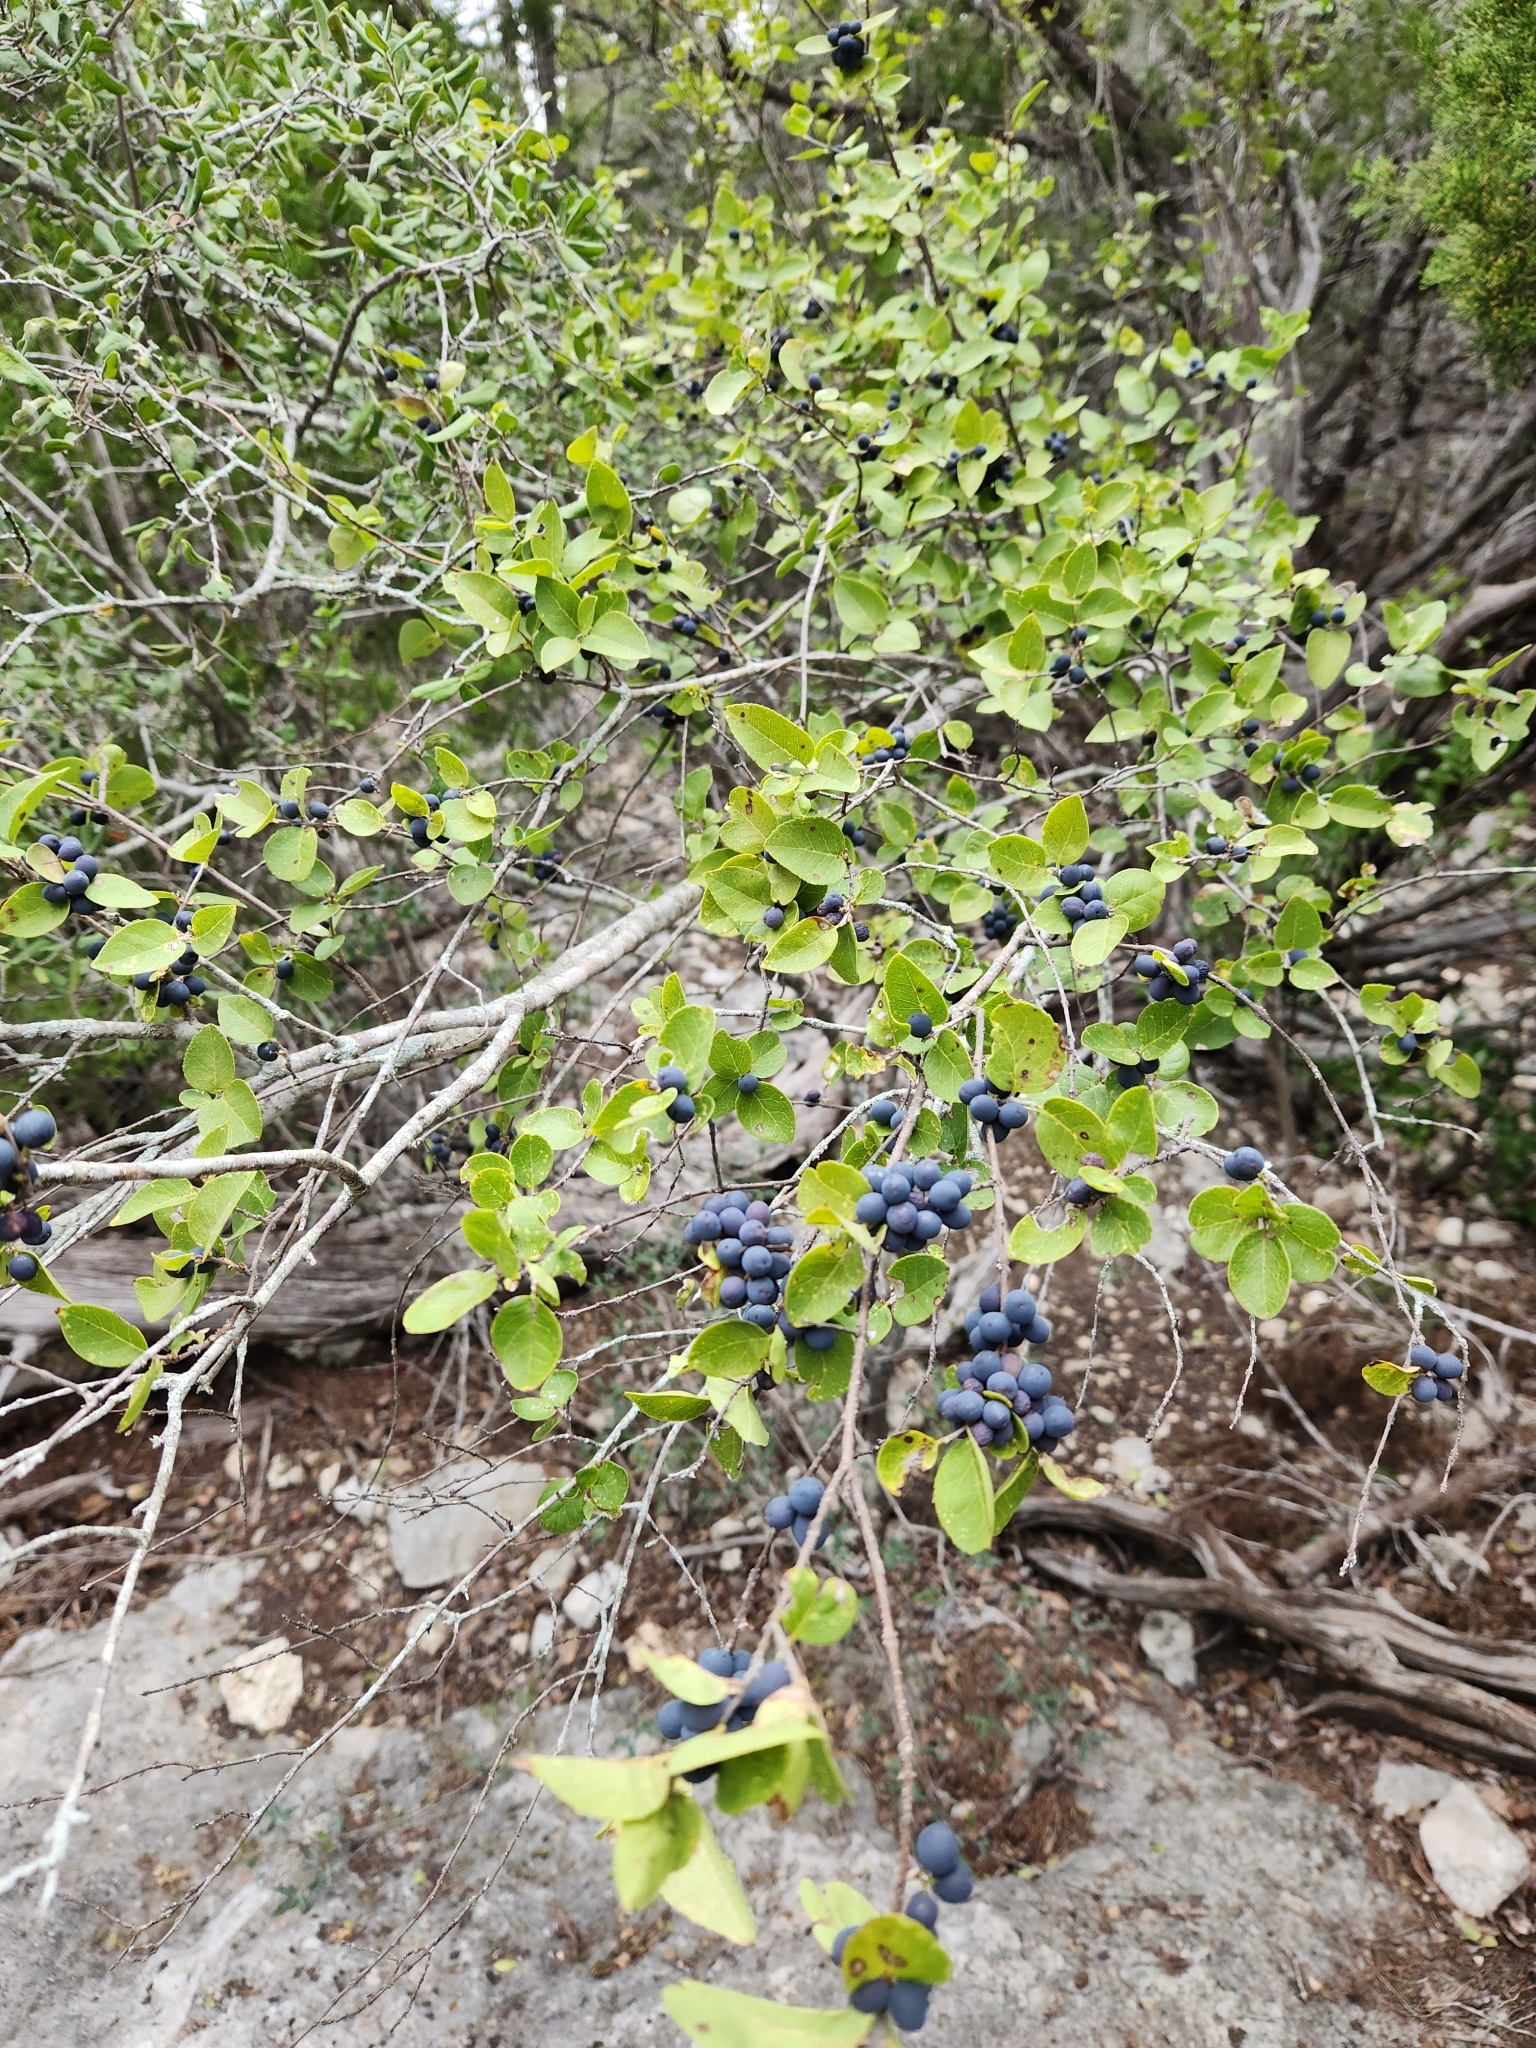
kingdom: Plantae
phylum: Tracheophyta
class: Magnoliopsida
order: Lamiales
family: Oleaceae
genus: Forestiera
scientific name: Forestiera reticulata
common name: Netleaf swamp-privet
